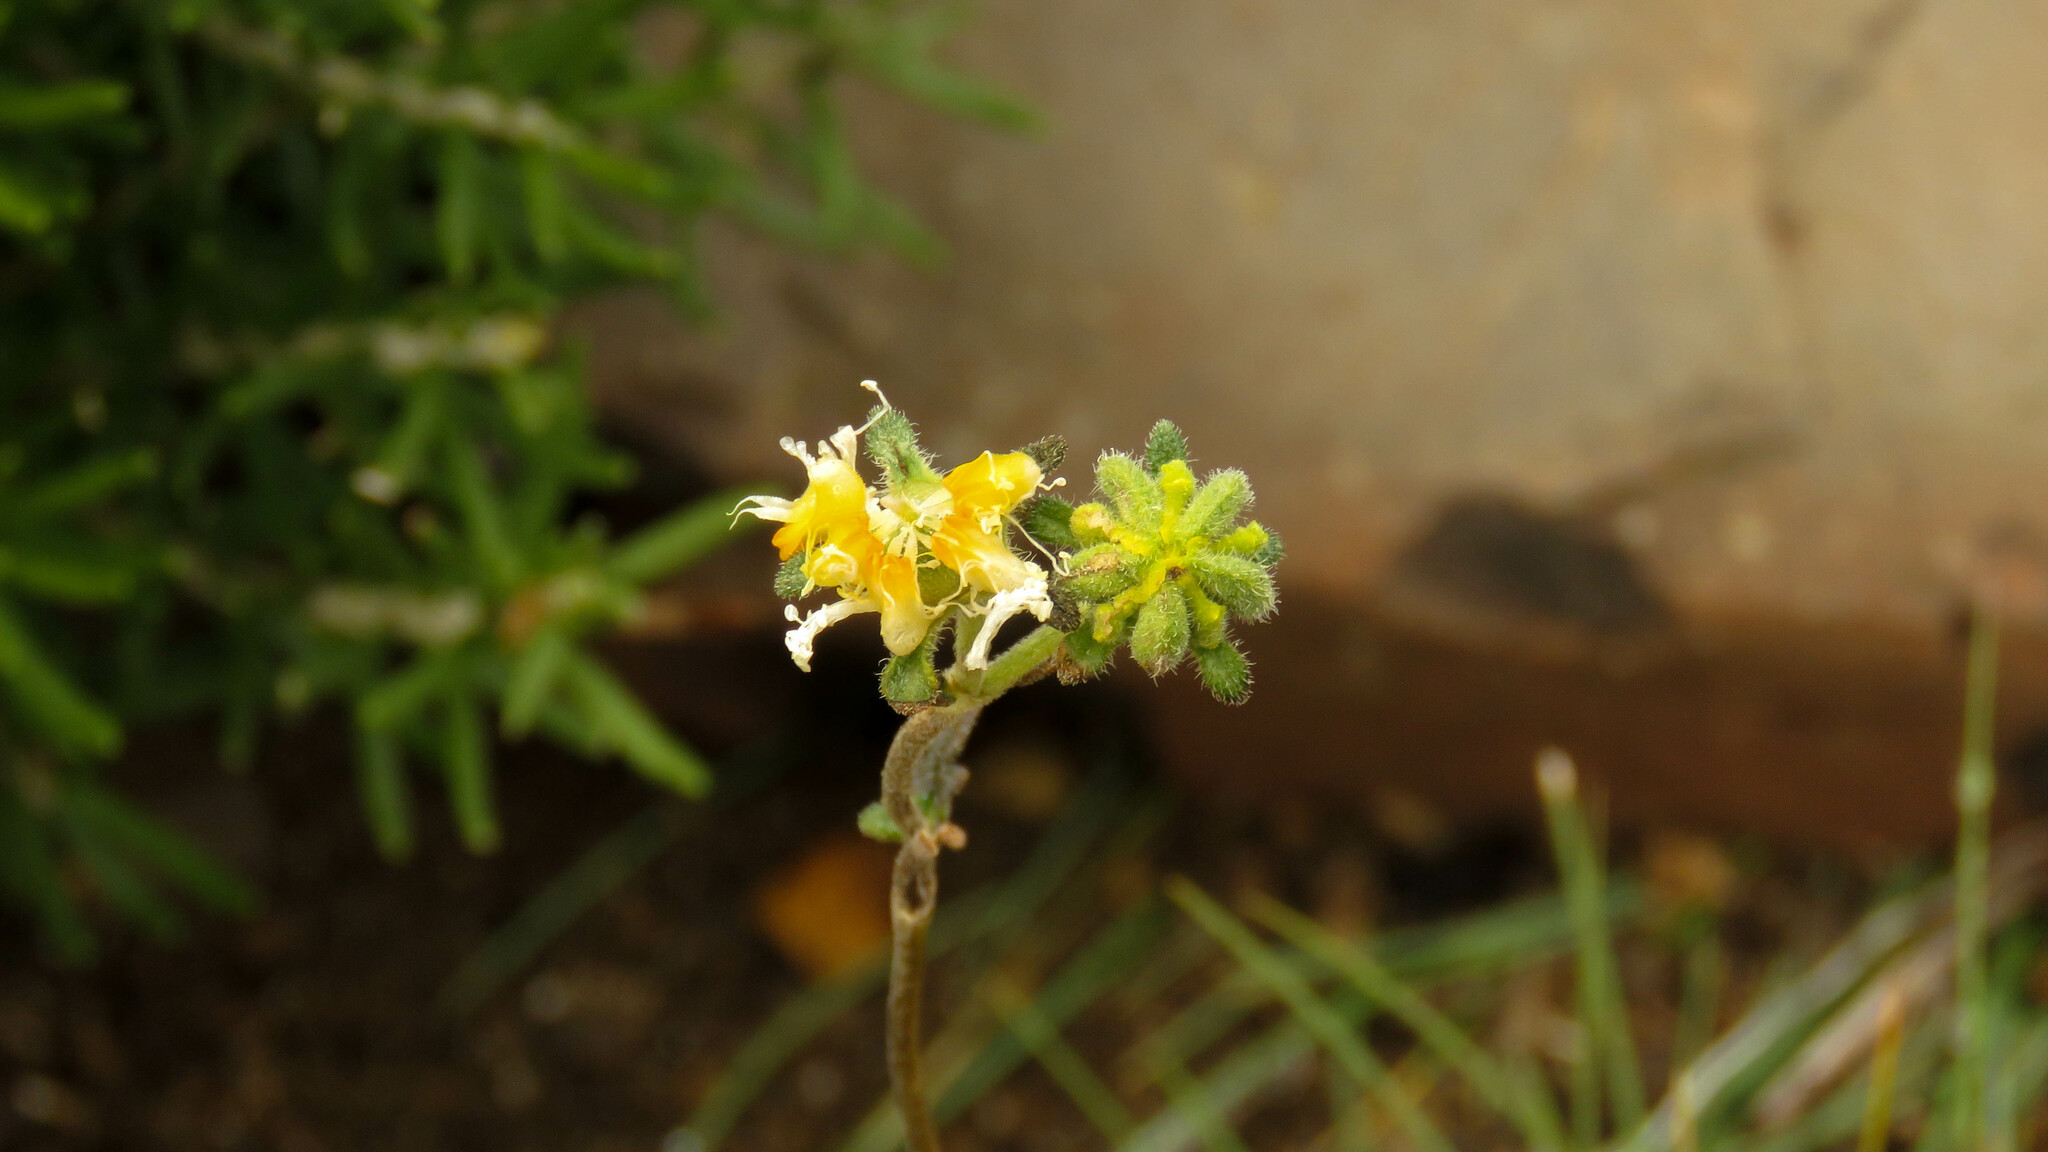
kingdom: Plantae
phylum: Tracheophyta
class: Magnoliopsida
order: Cornales
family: Loasaceae
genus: Pinnasa
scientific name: Pinnasa bergii
